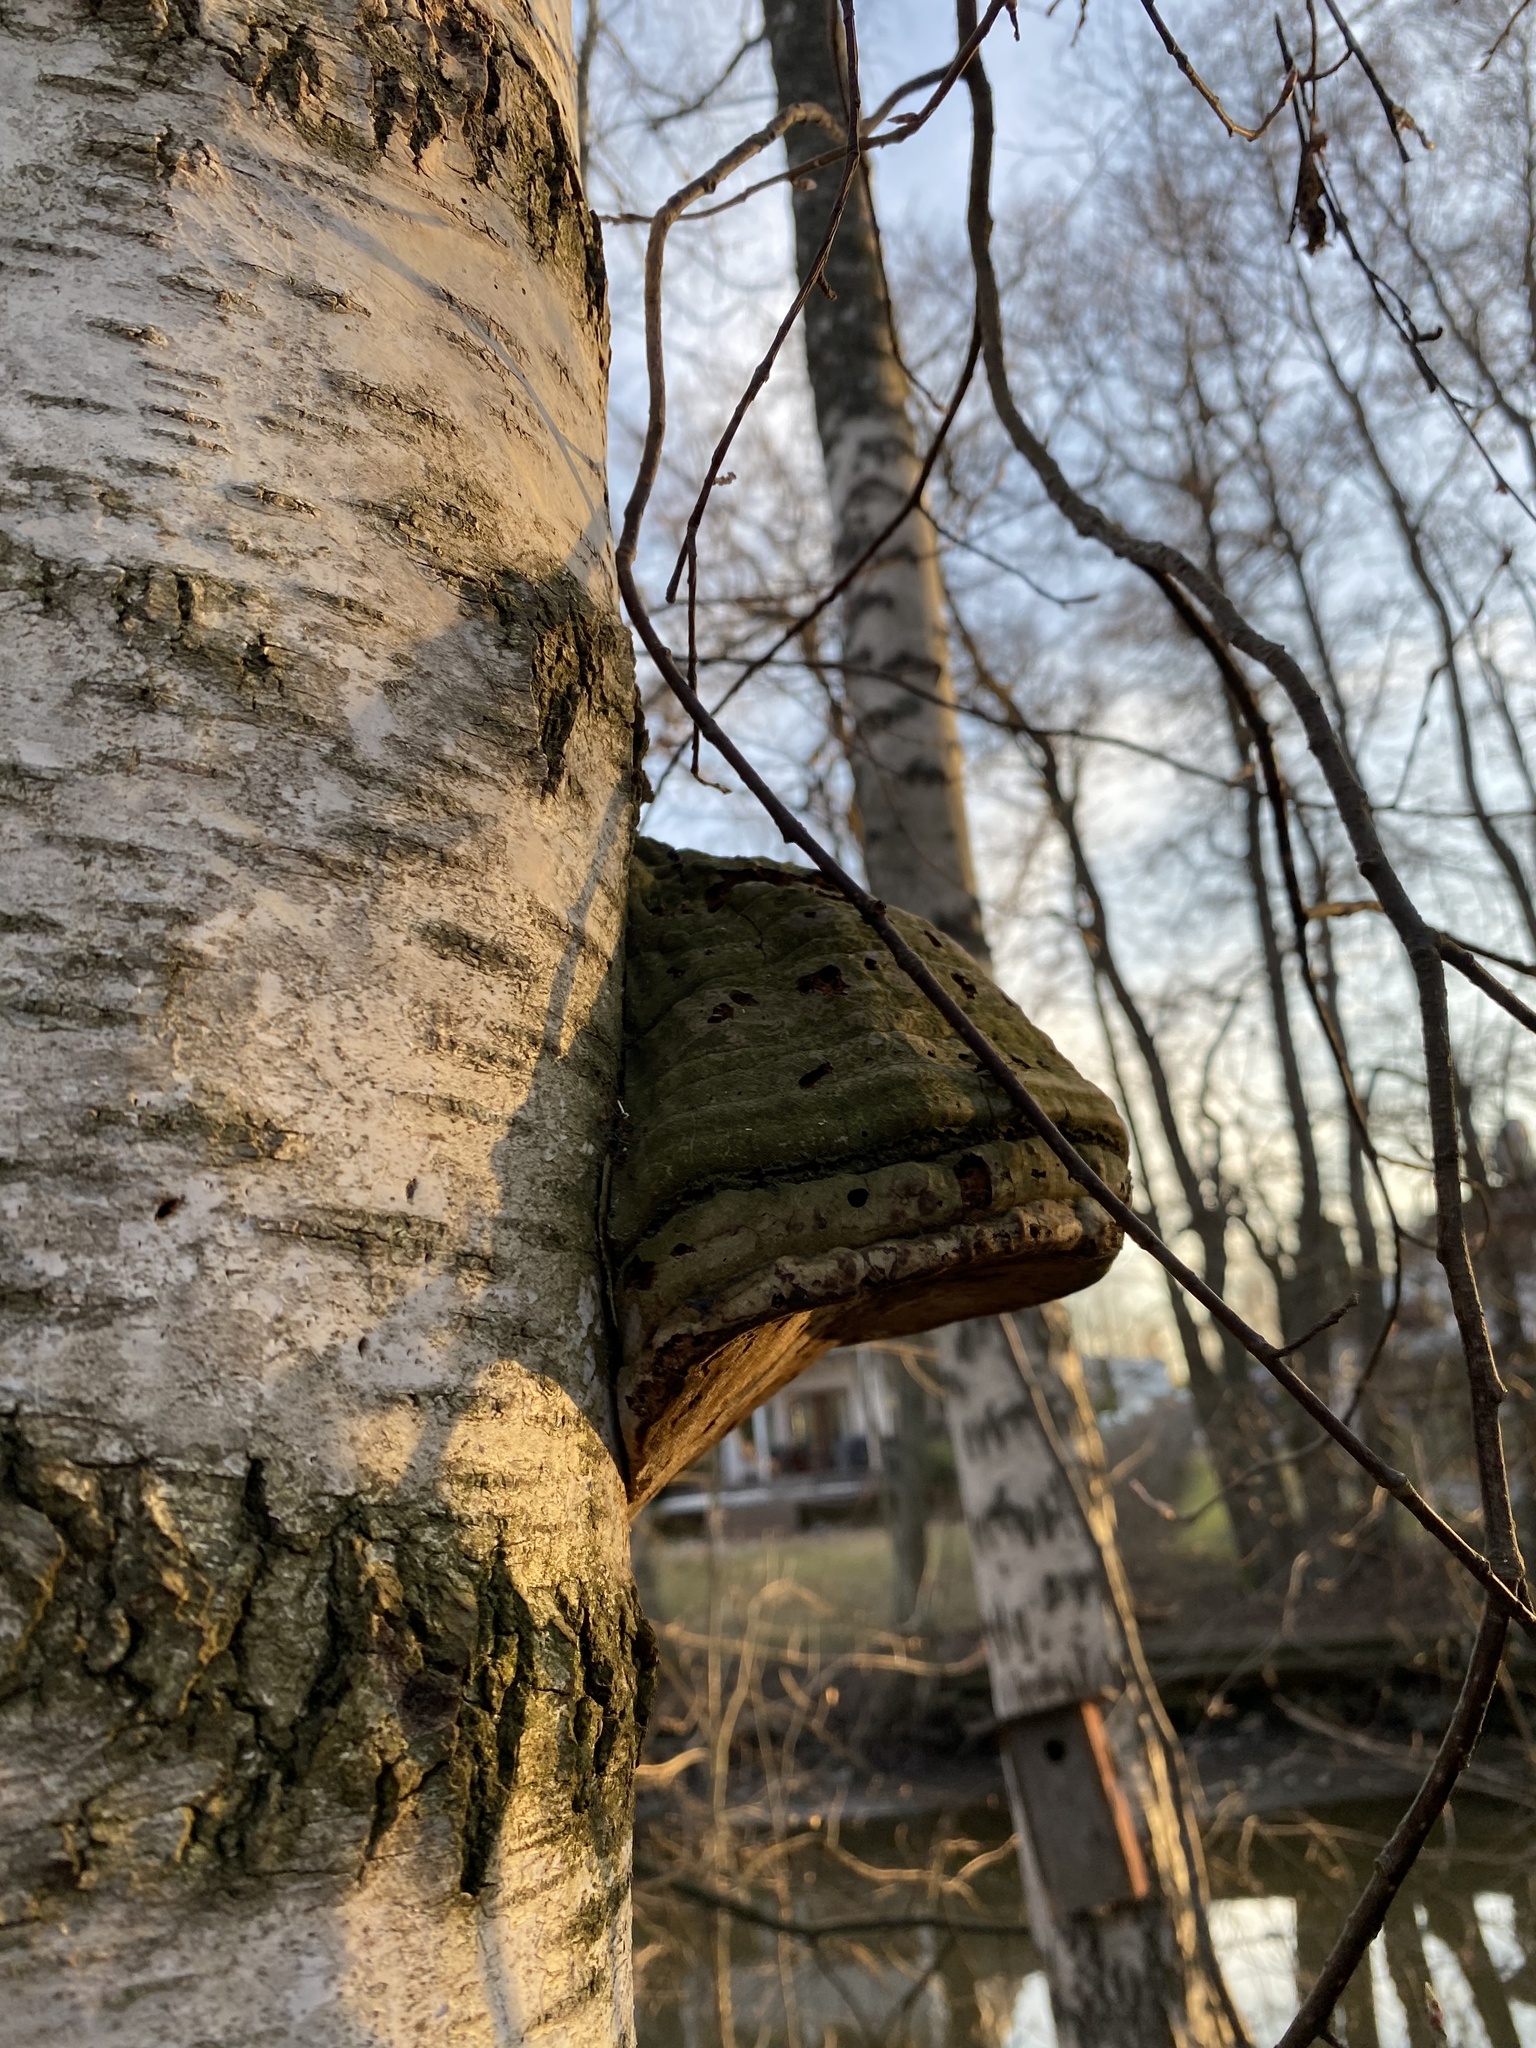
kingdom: Fungi
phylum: Basidiomycota
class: Agaricomycetes
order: Polyporales
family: Polyporaceae
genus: Fomes
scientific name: Fomes fomentarius
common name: Hoof fungus
